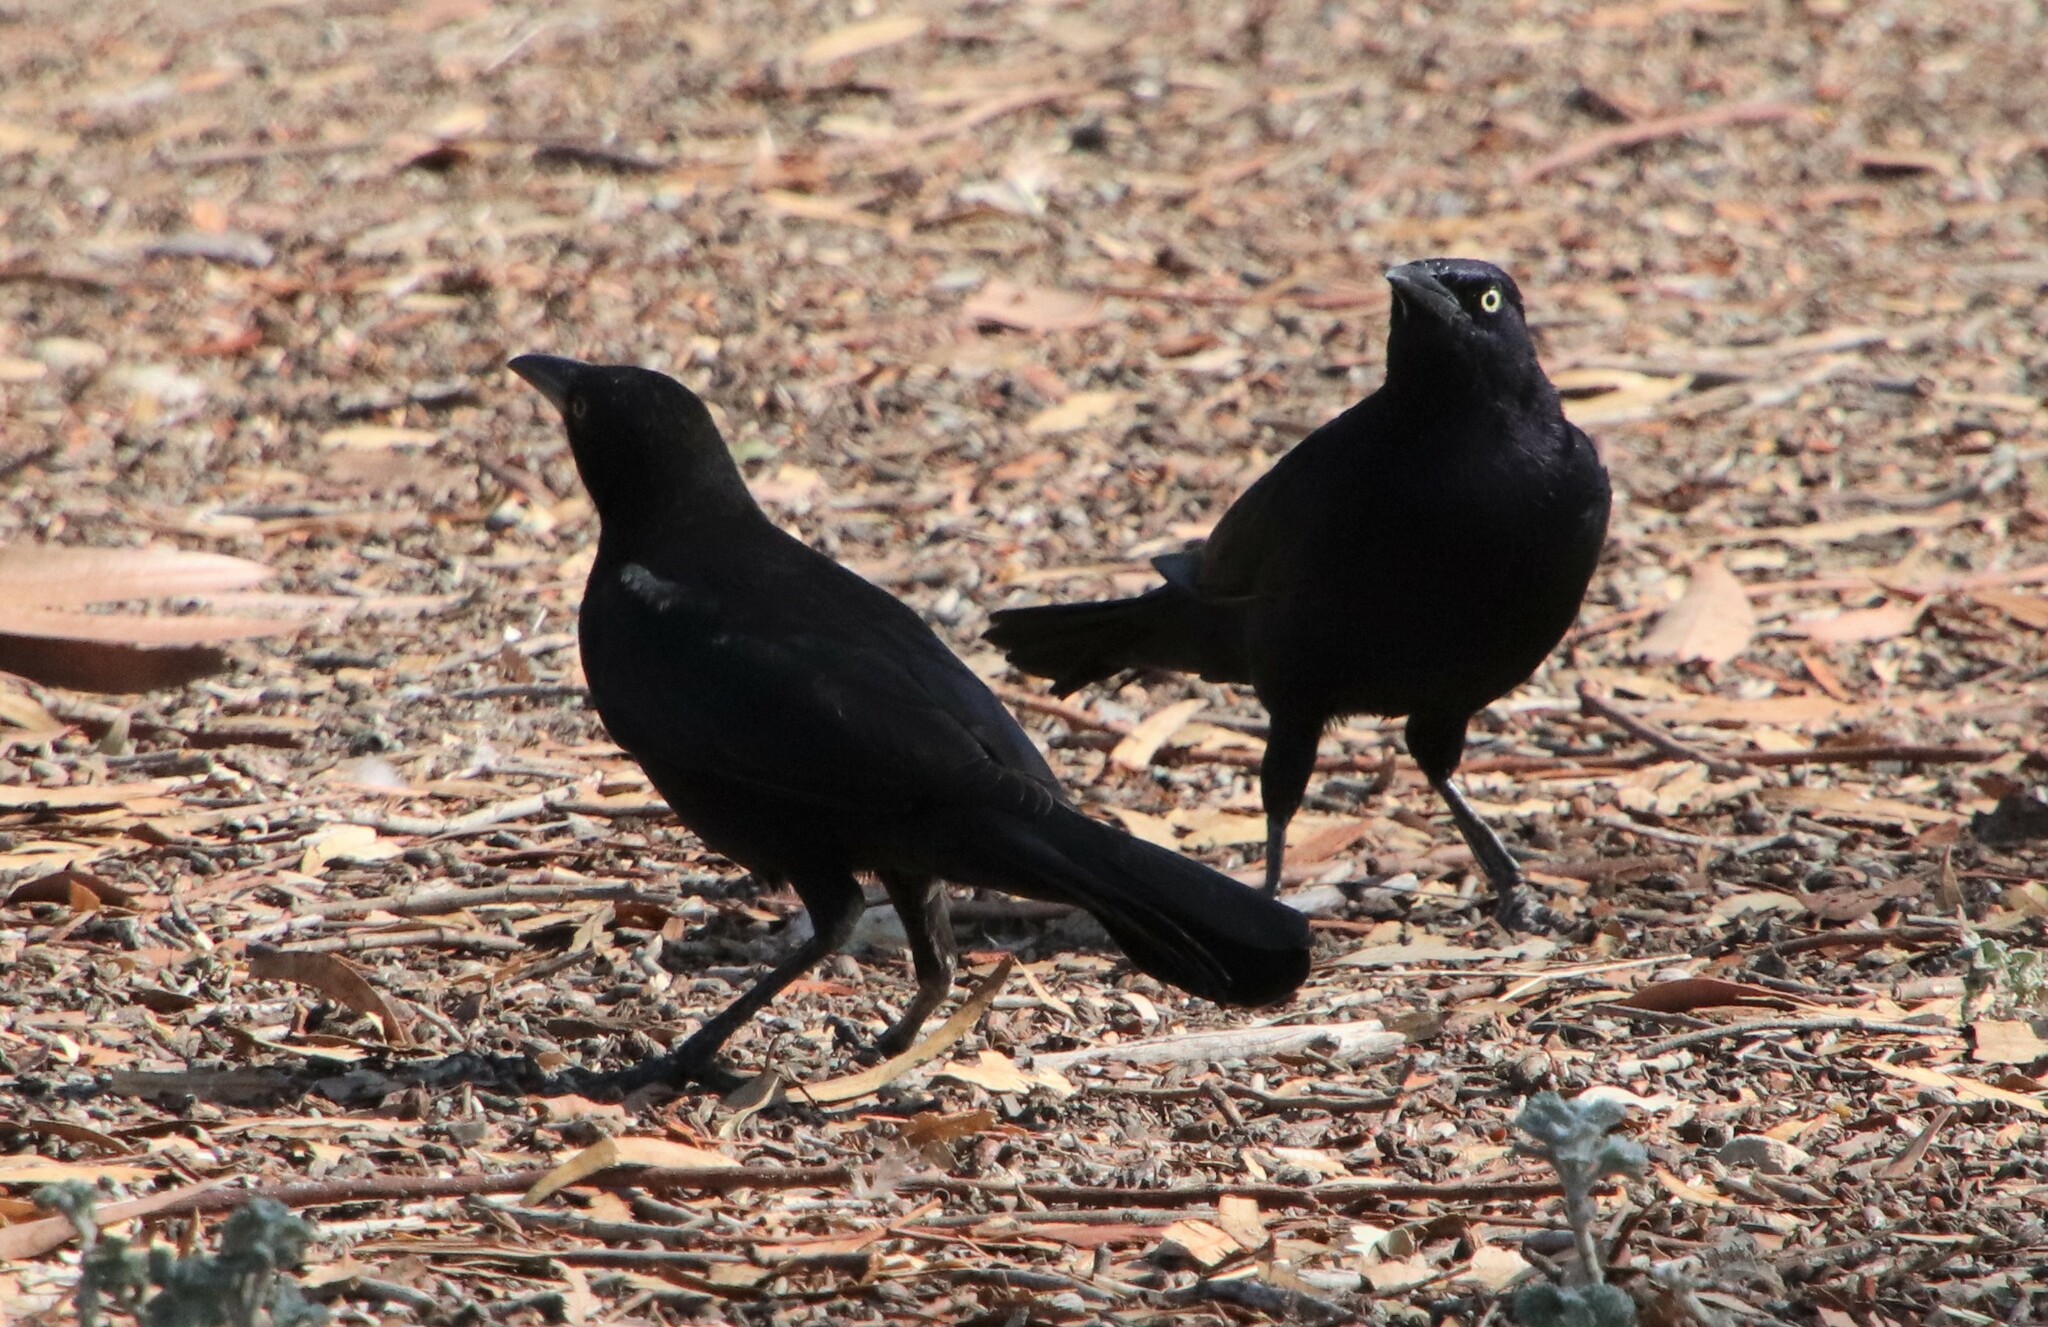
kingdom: Animalia
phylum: Chordata
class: Aves
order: Passeriformes
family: Icteridae
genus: Quiscalus
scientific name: Quiscalus mexicanus
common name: Great-tailed grackle
